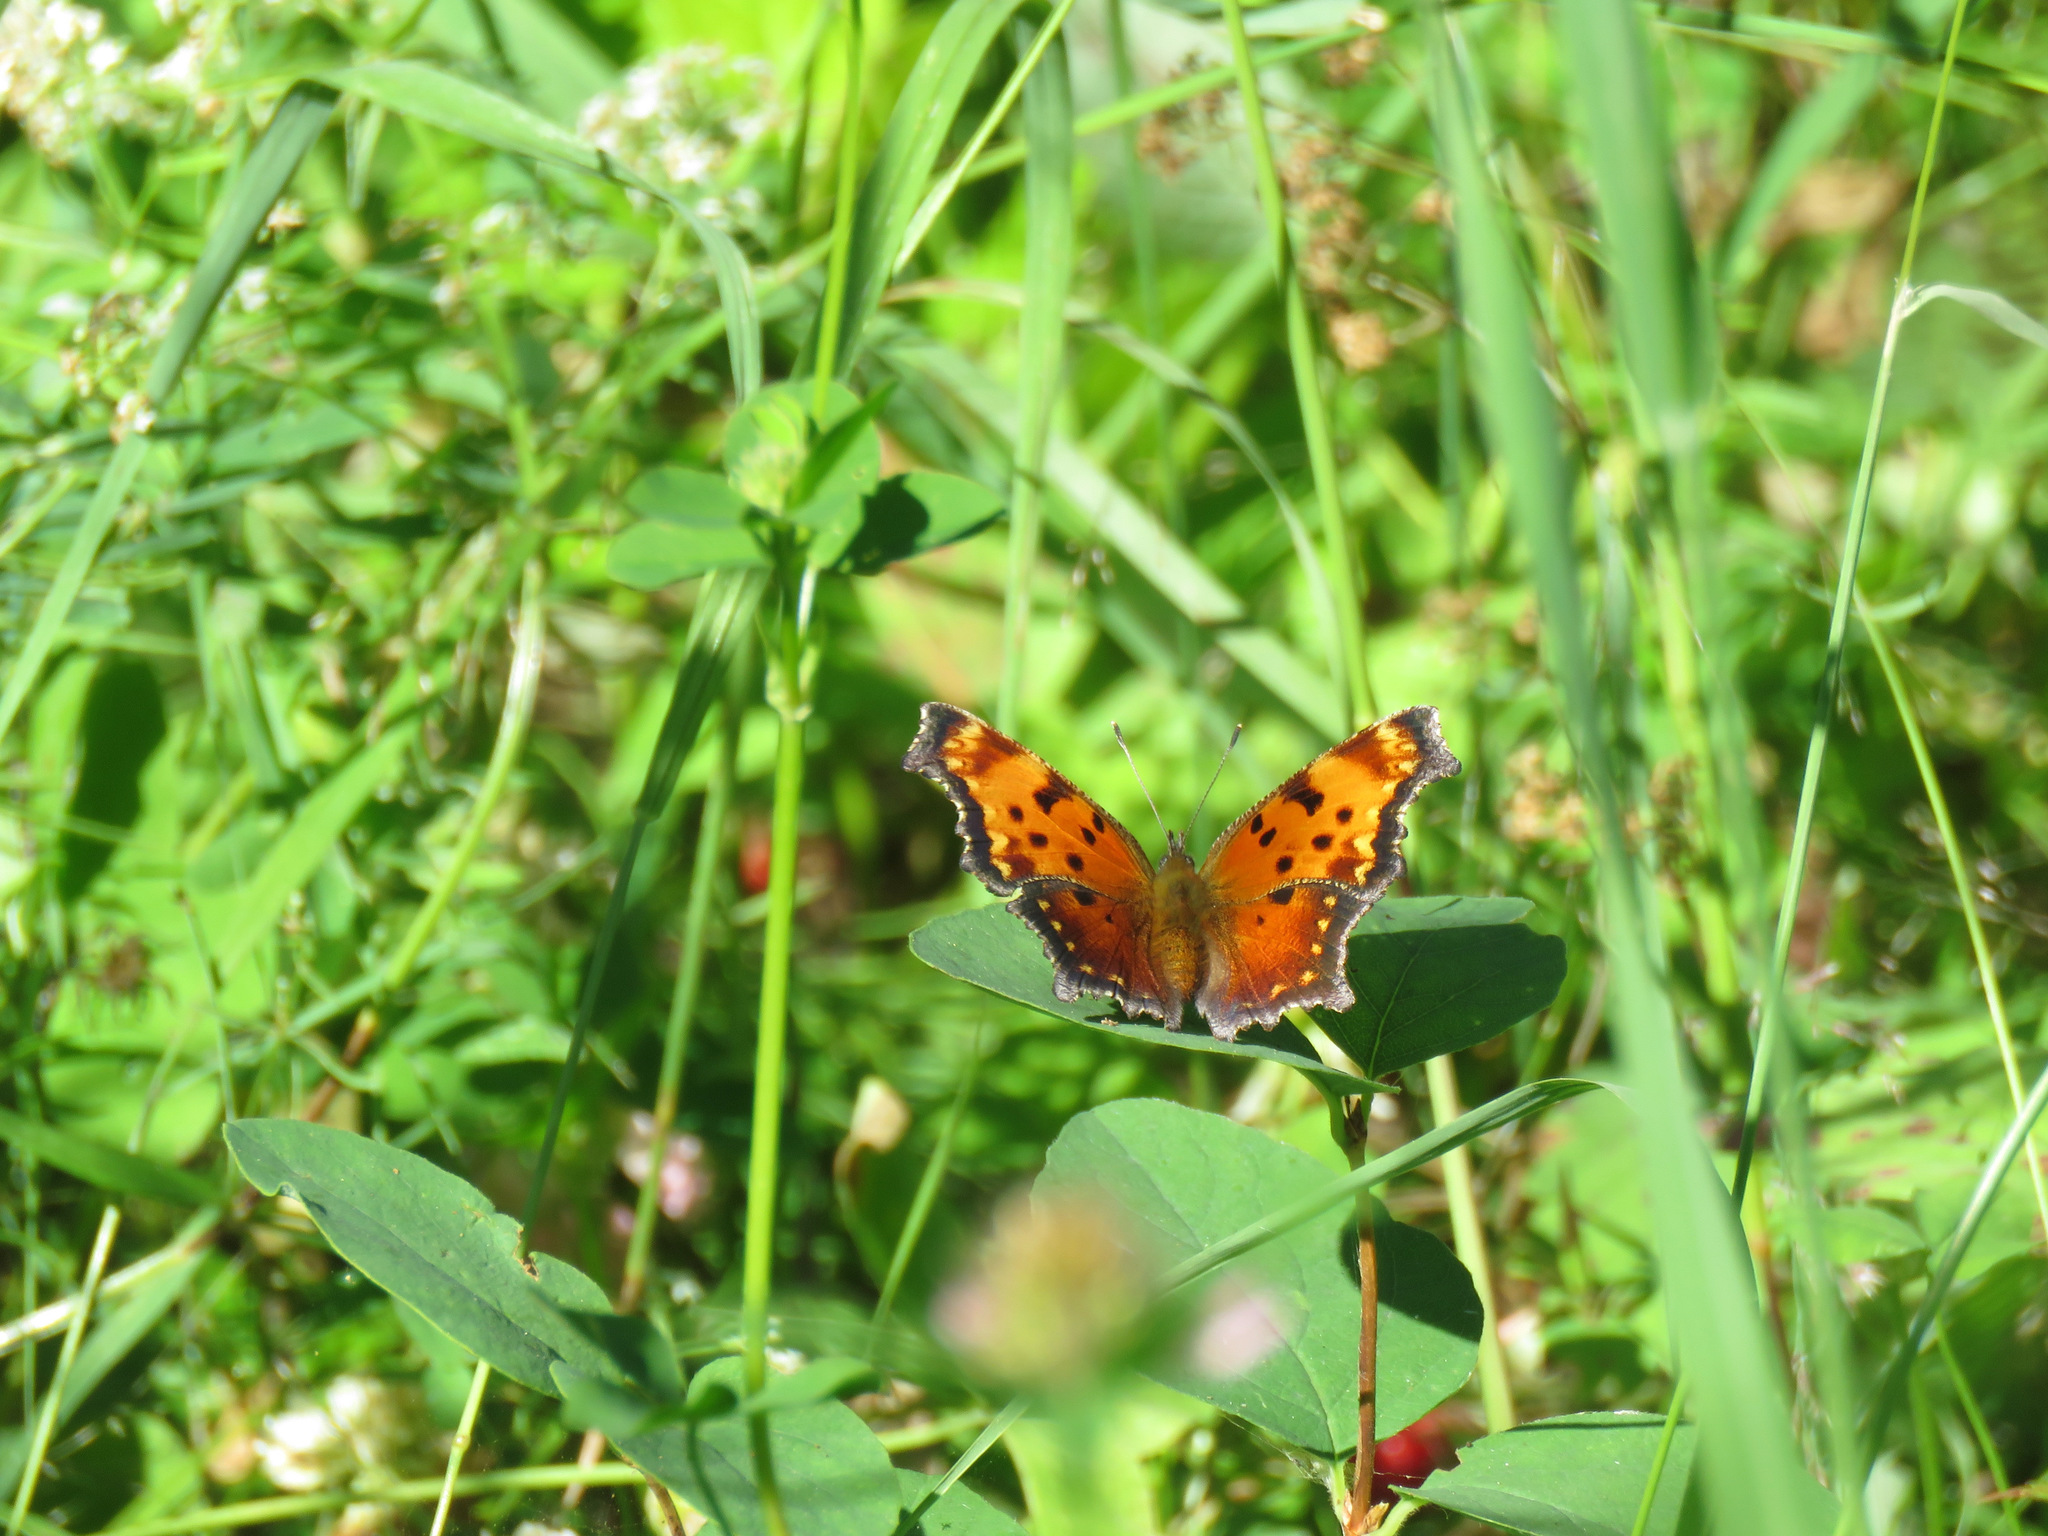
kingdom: Animalia
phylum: Arthropoda
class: Insecta
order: Lepidoptera
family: Nymphalidae
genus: Polygonia
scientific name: Polygonia progne
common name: Gray comma
